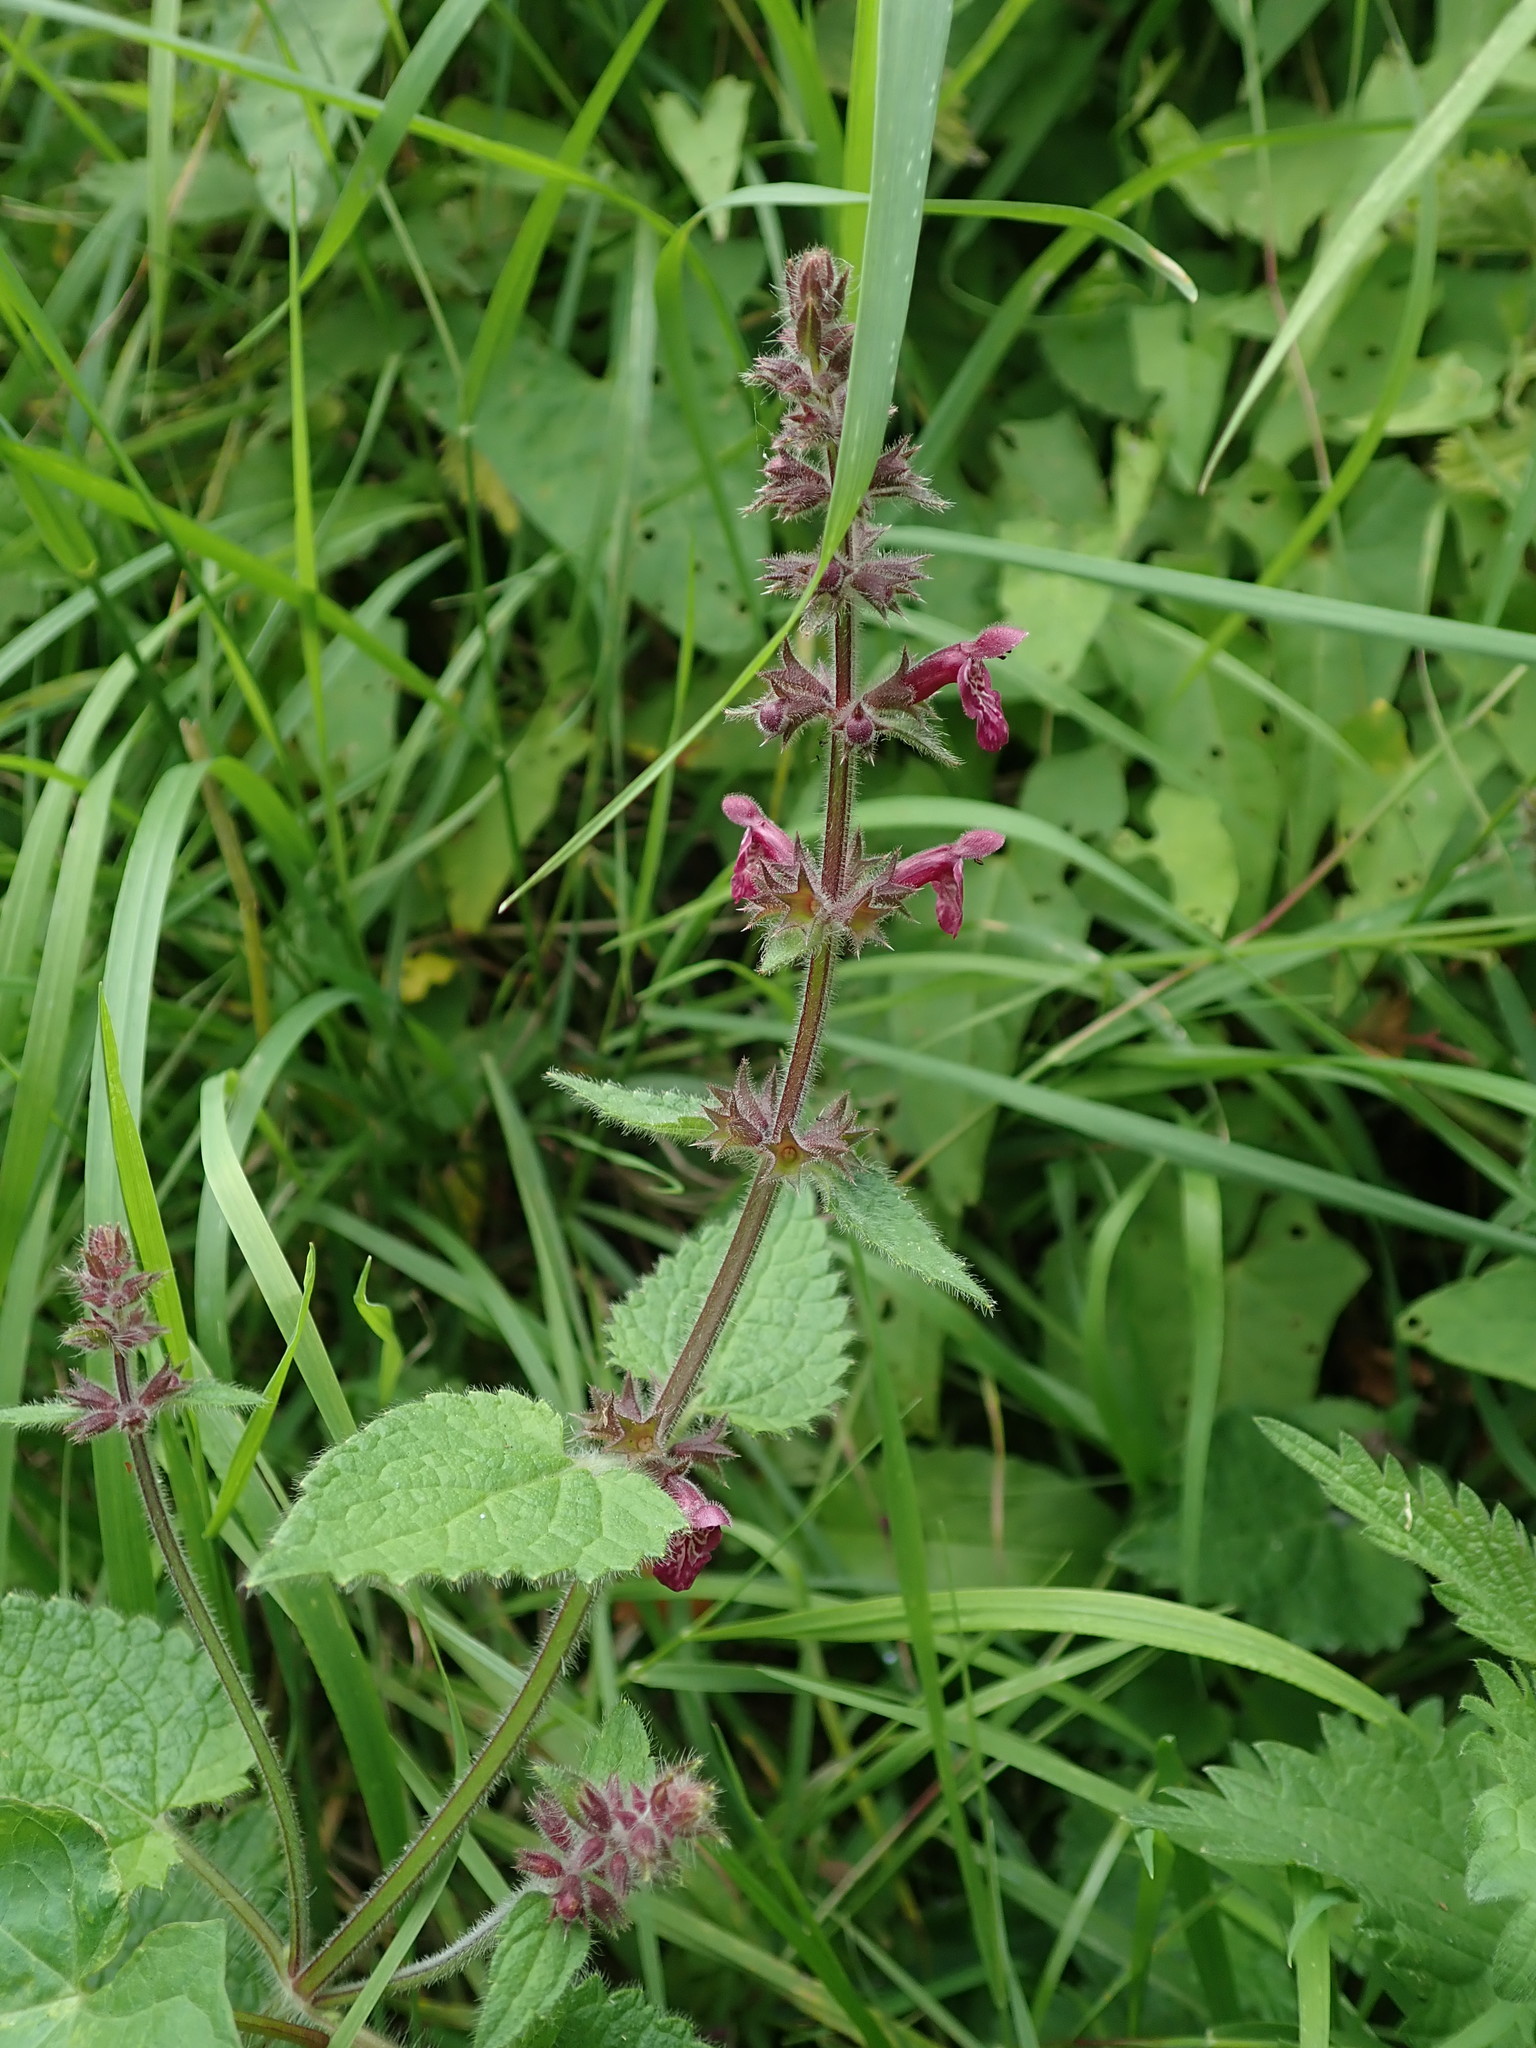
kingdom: Plantae
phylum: Tracheophyta
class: Magnoliopsida
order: Lamiales
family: Lamiaceae
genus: Stachys
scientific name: Stachys sylvatica
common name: Hedge woundwort
